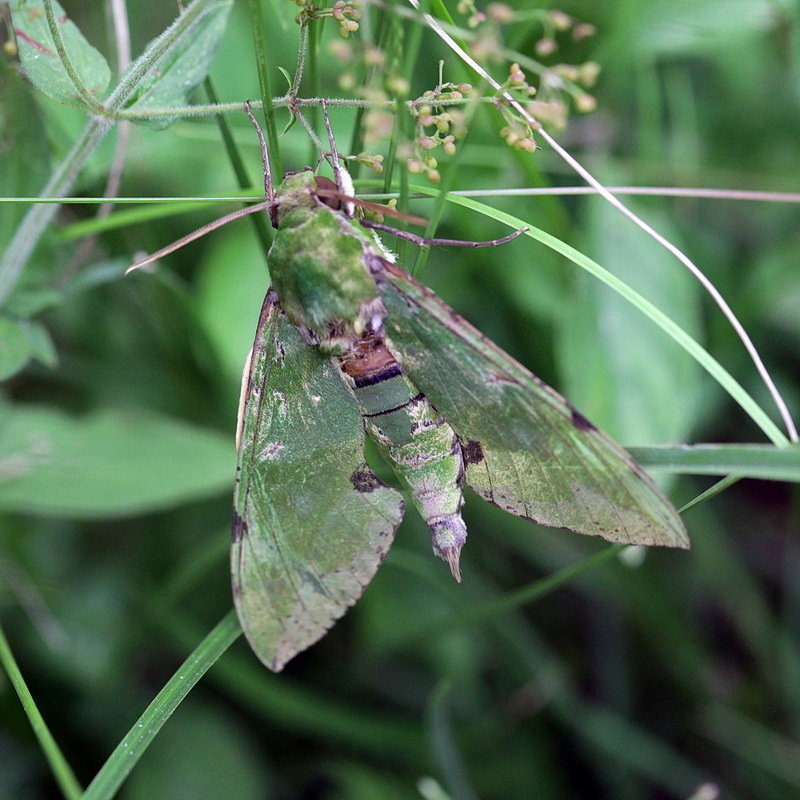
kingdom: Animalia
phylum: Arthropoda
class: Insecta
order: Lepidoptera
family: Sphingidae
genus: Euchloron
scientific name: Euchloron megaera
